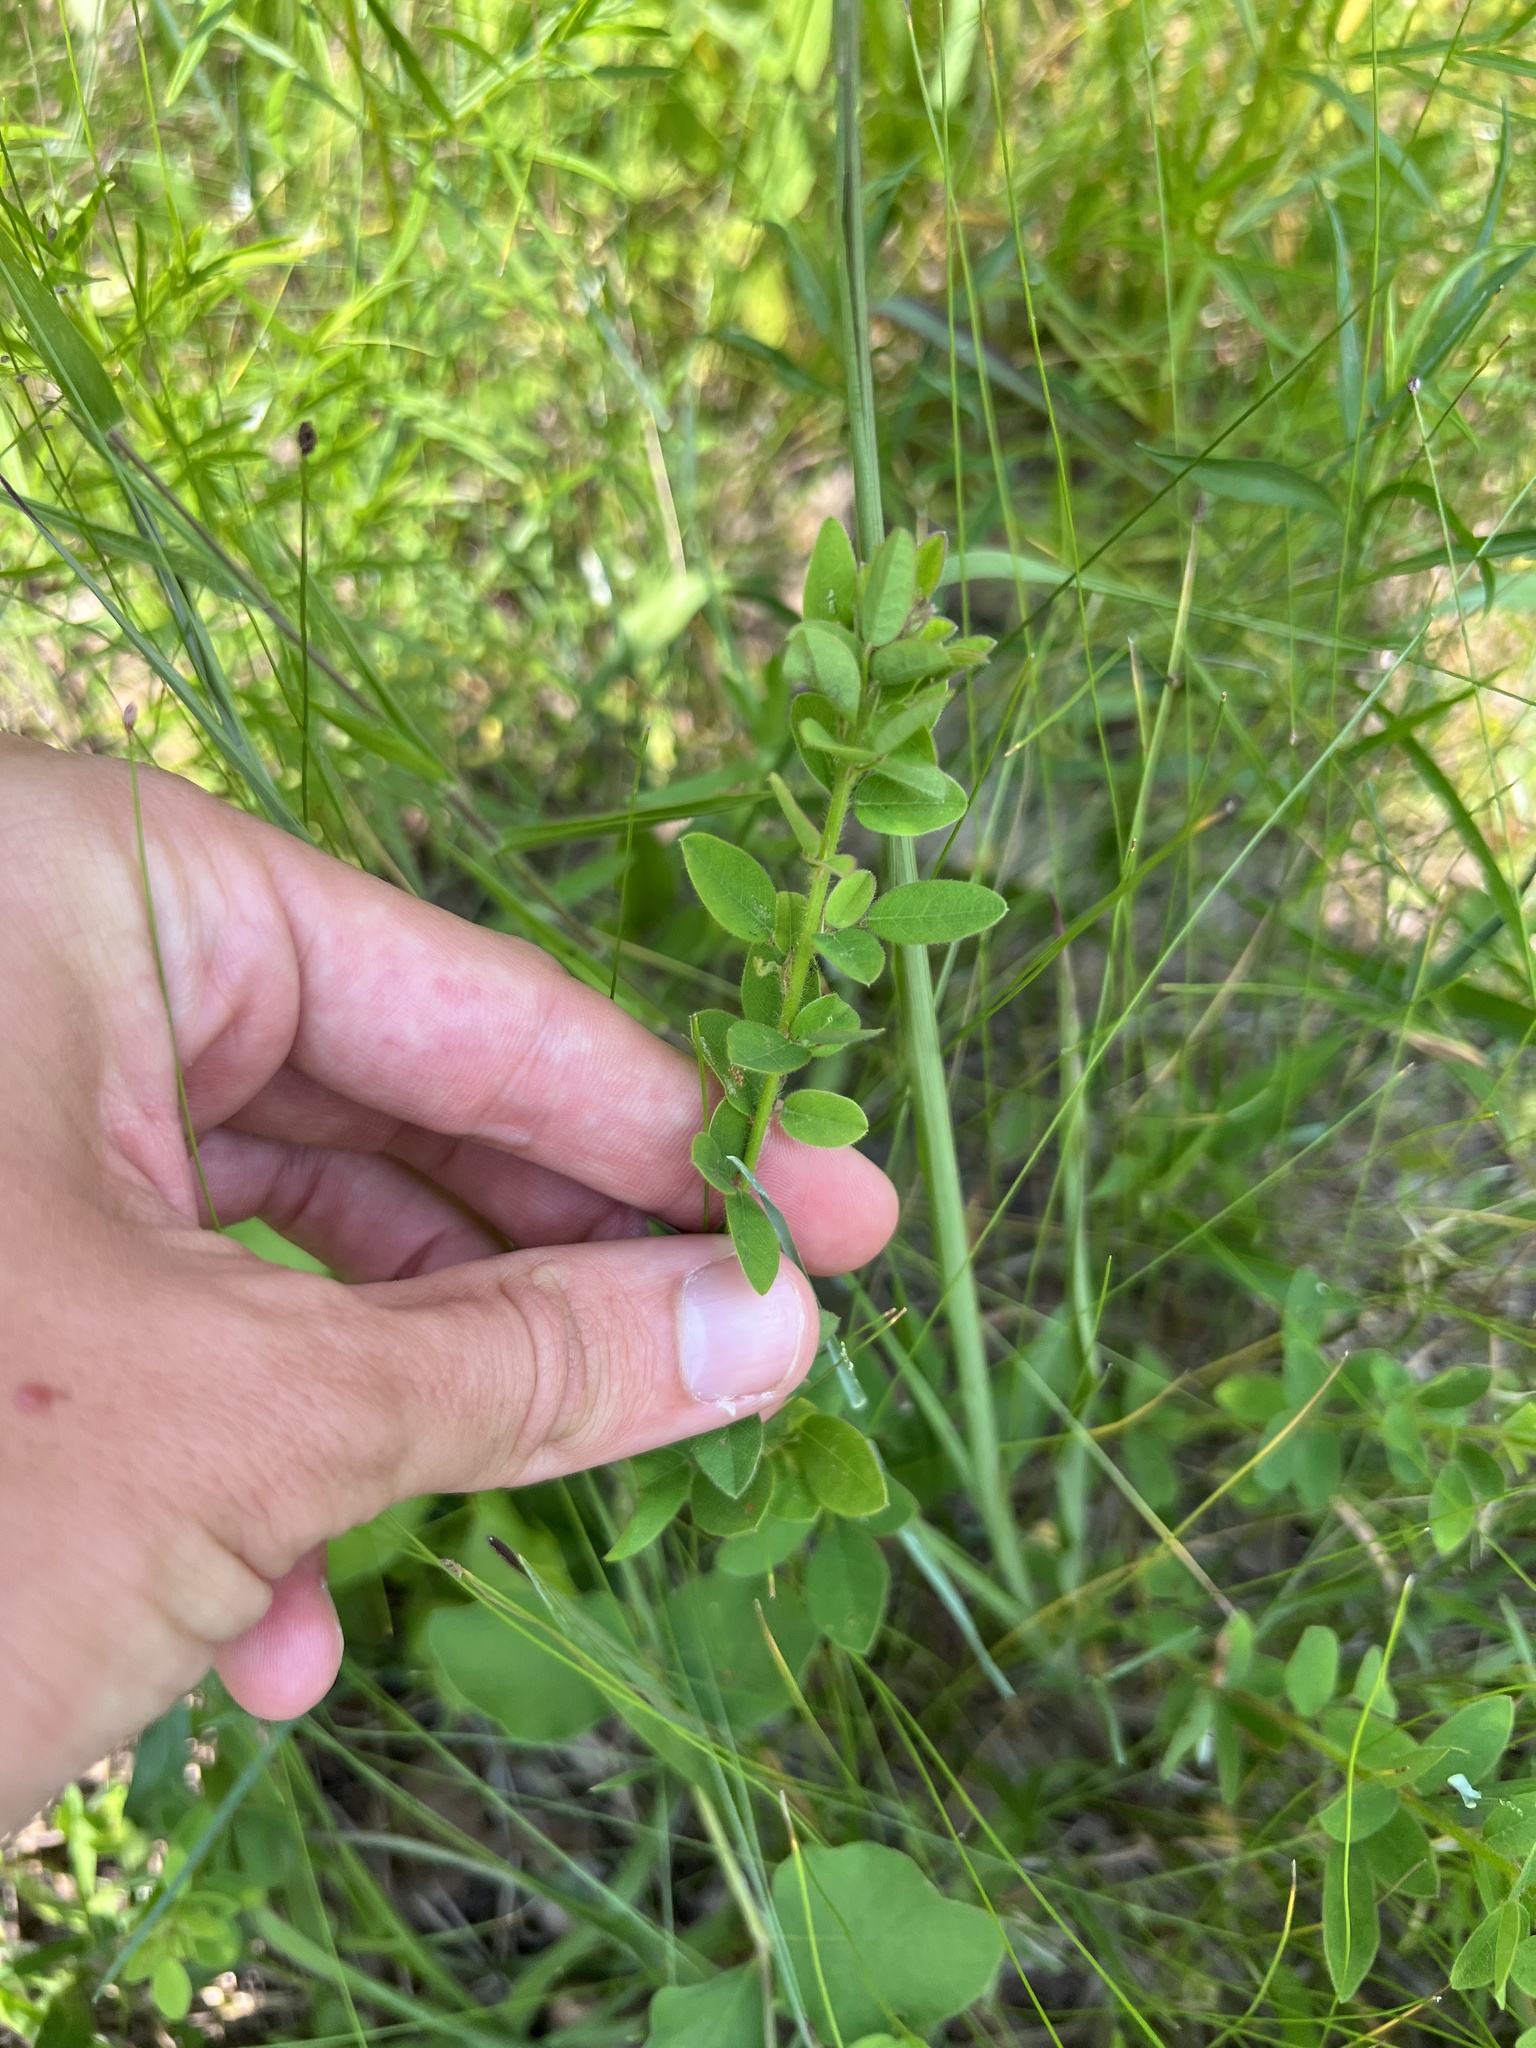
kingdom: Plantae
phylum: Tracheophyta
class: Magnoliopsida
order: Fabales
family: Fabaceae
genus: Desmodium
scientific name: Desmodium ciliare
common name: Hairy small-leaf ticktrefoil
